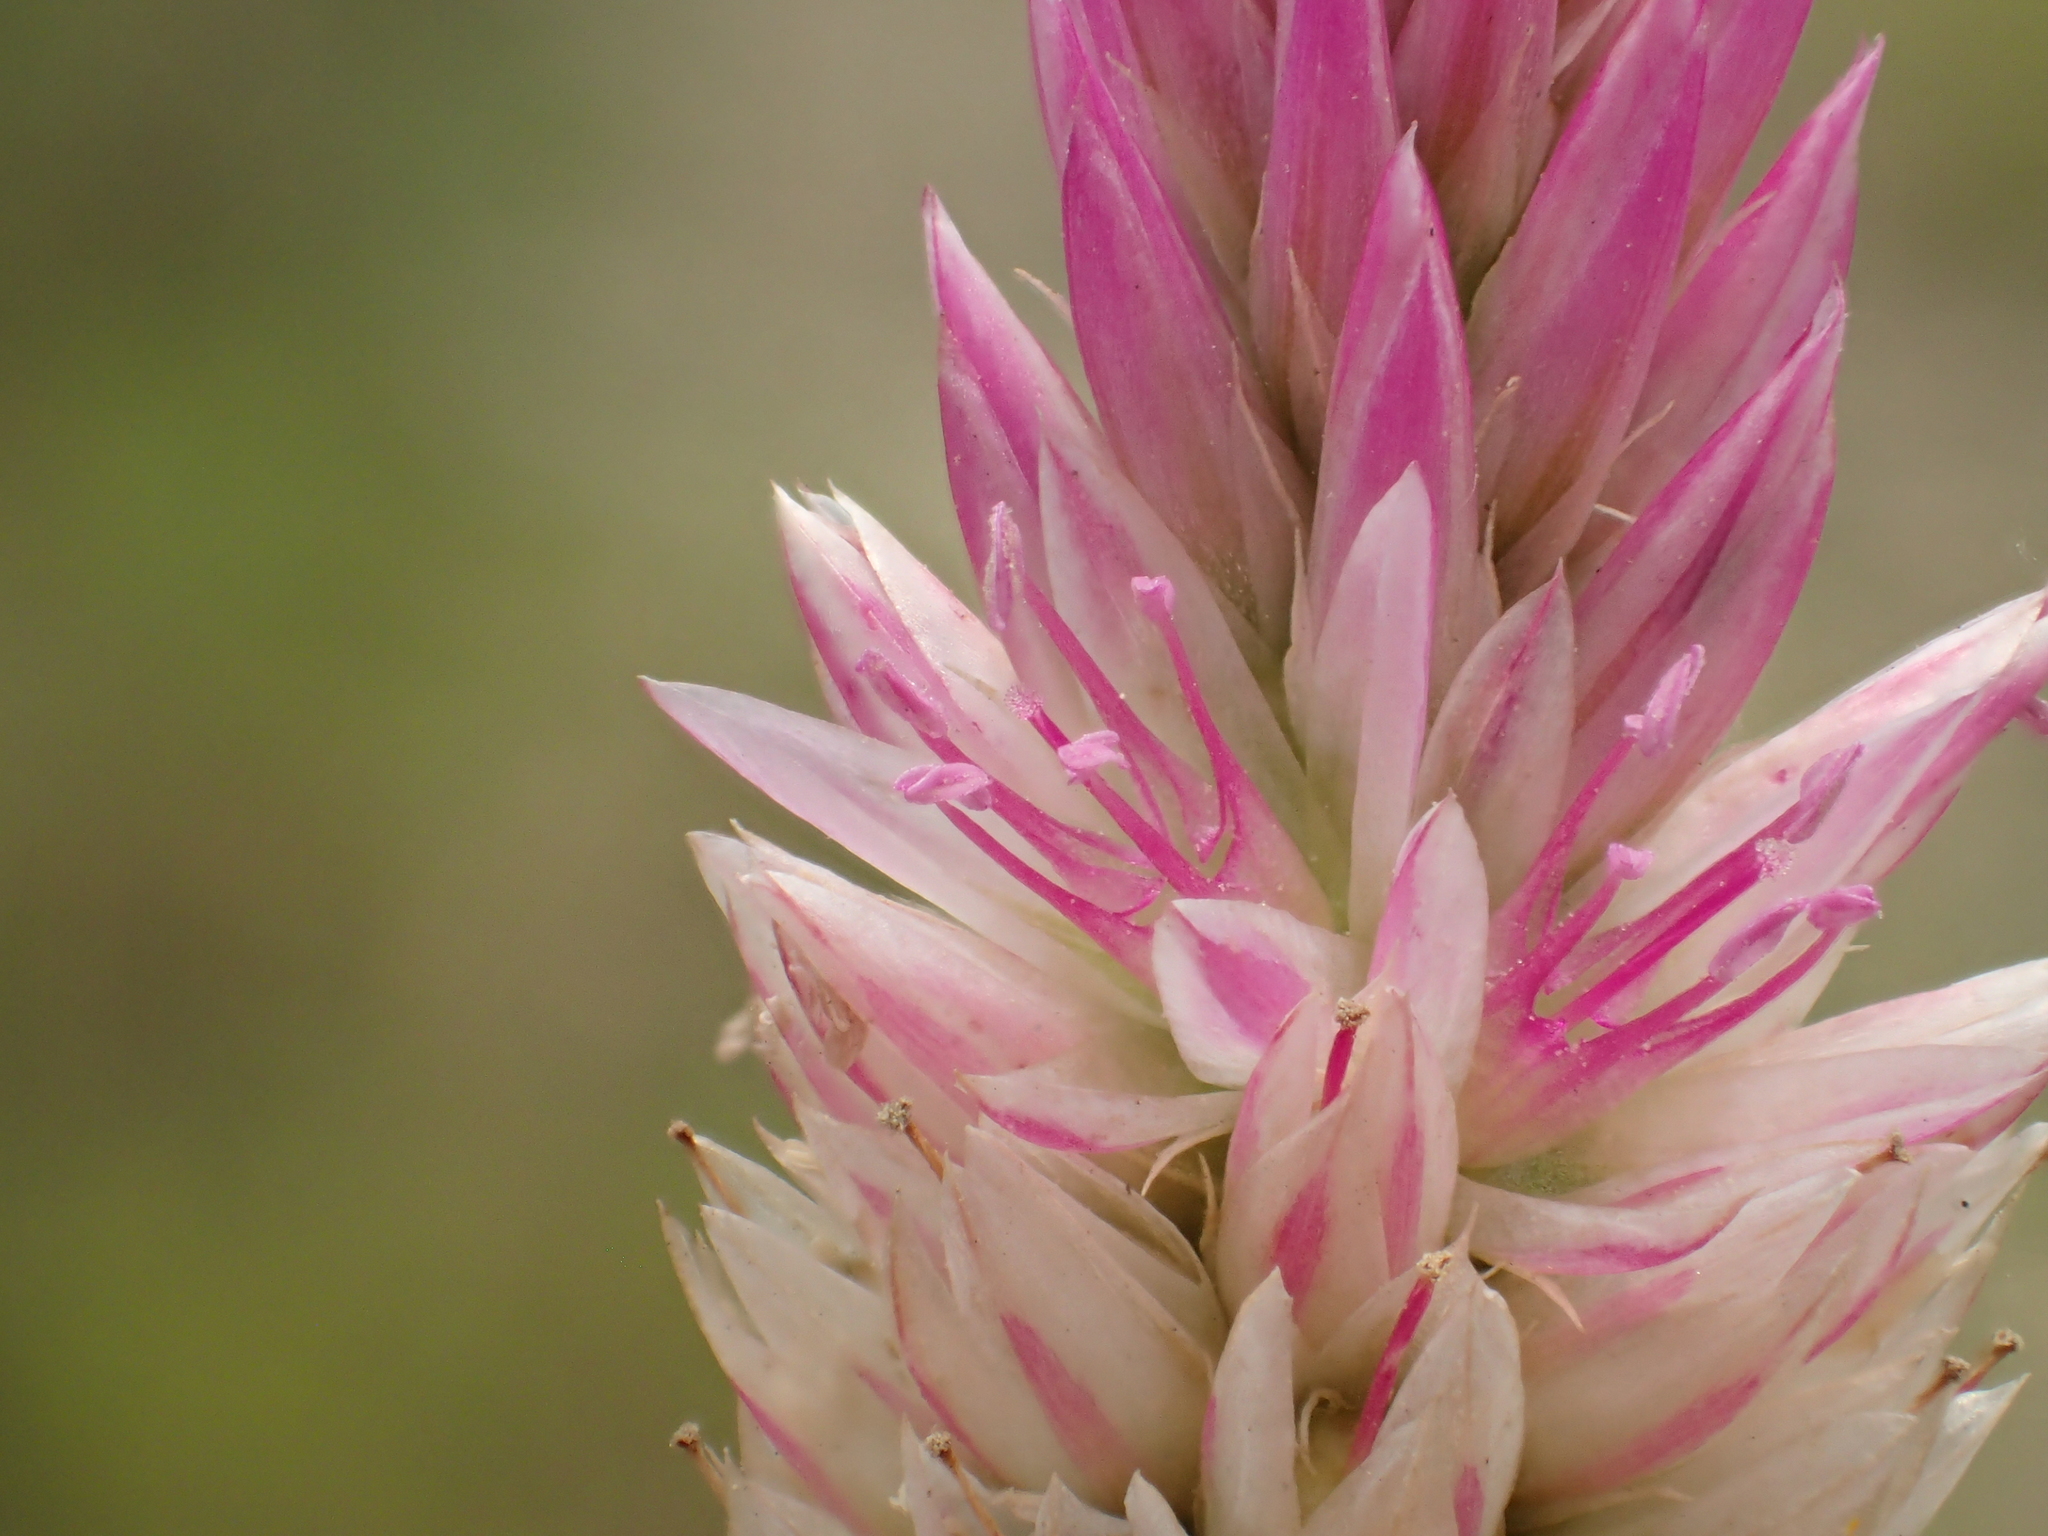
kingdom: Plantae
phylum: Tracheophyta
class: Magnoliopsida
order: Caryophyllales
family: Amaranthaceae
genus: Celosia
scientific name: Celosia argentea
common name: Feather cockscomb
